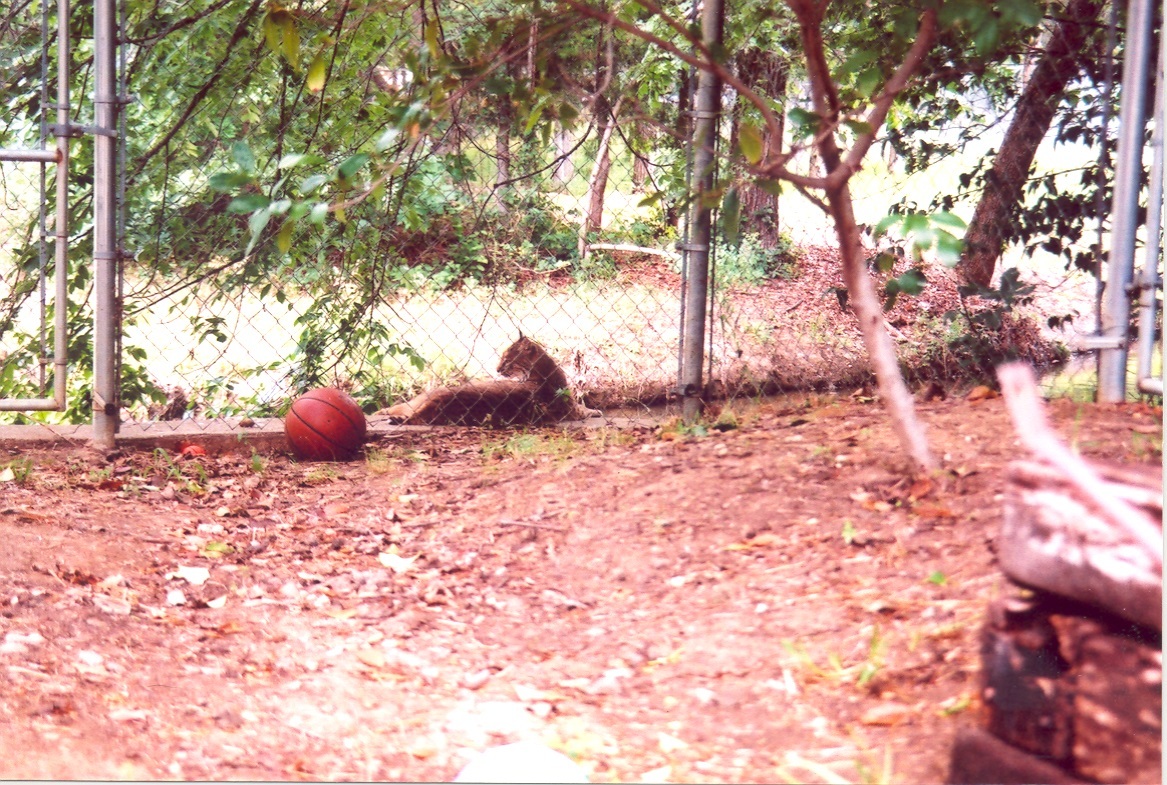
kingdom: Animalia
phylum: Chordata
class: Mammalia
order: Carnivora
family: Felidae
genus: Lynx
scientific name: Lynx rufus
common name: Bobcat
